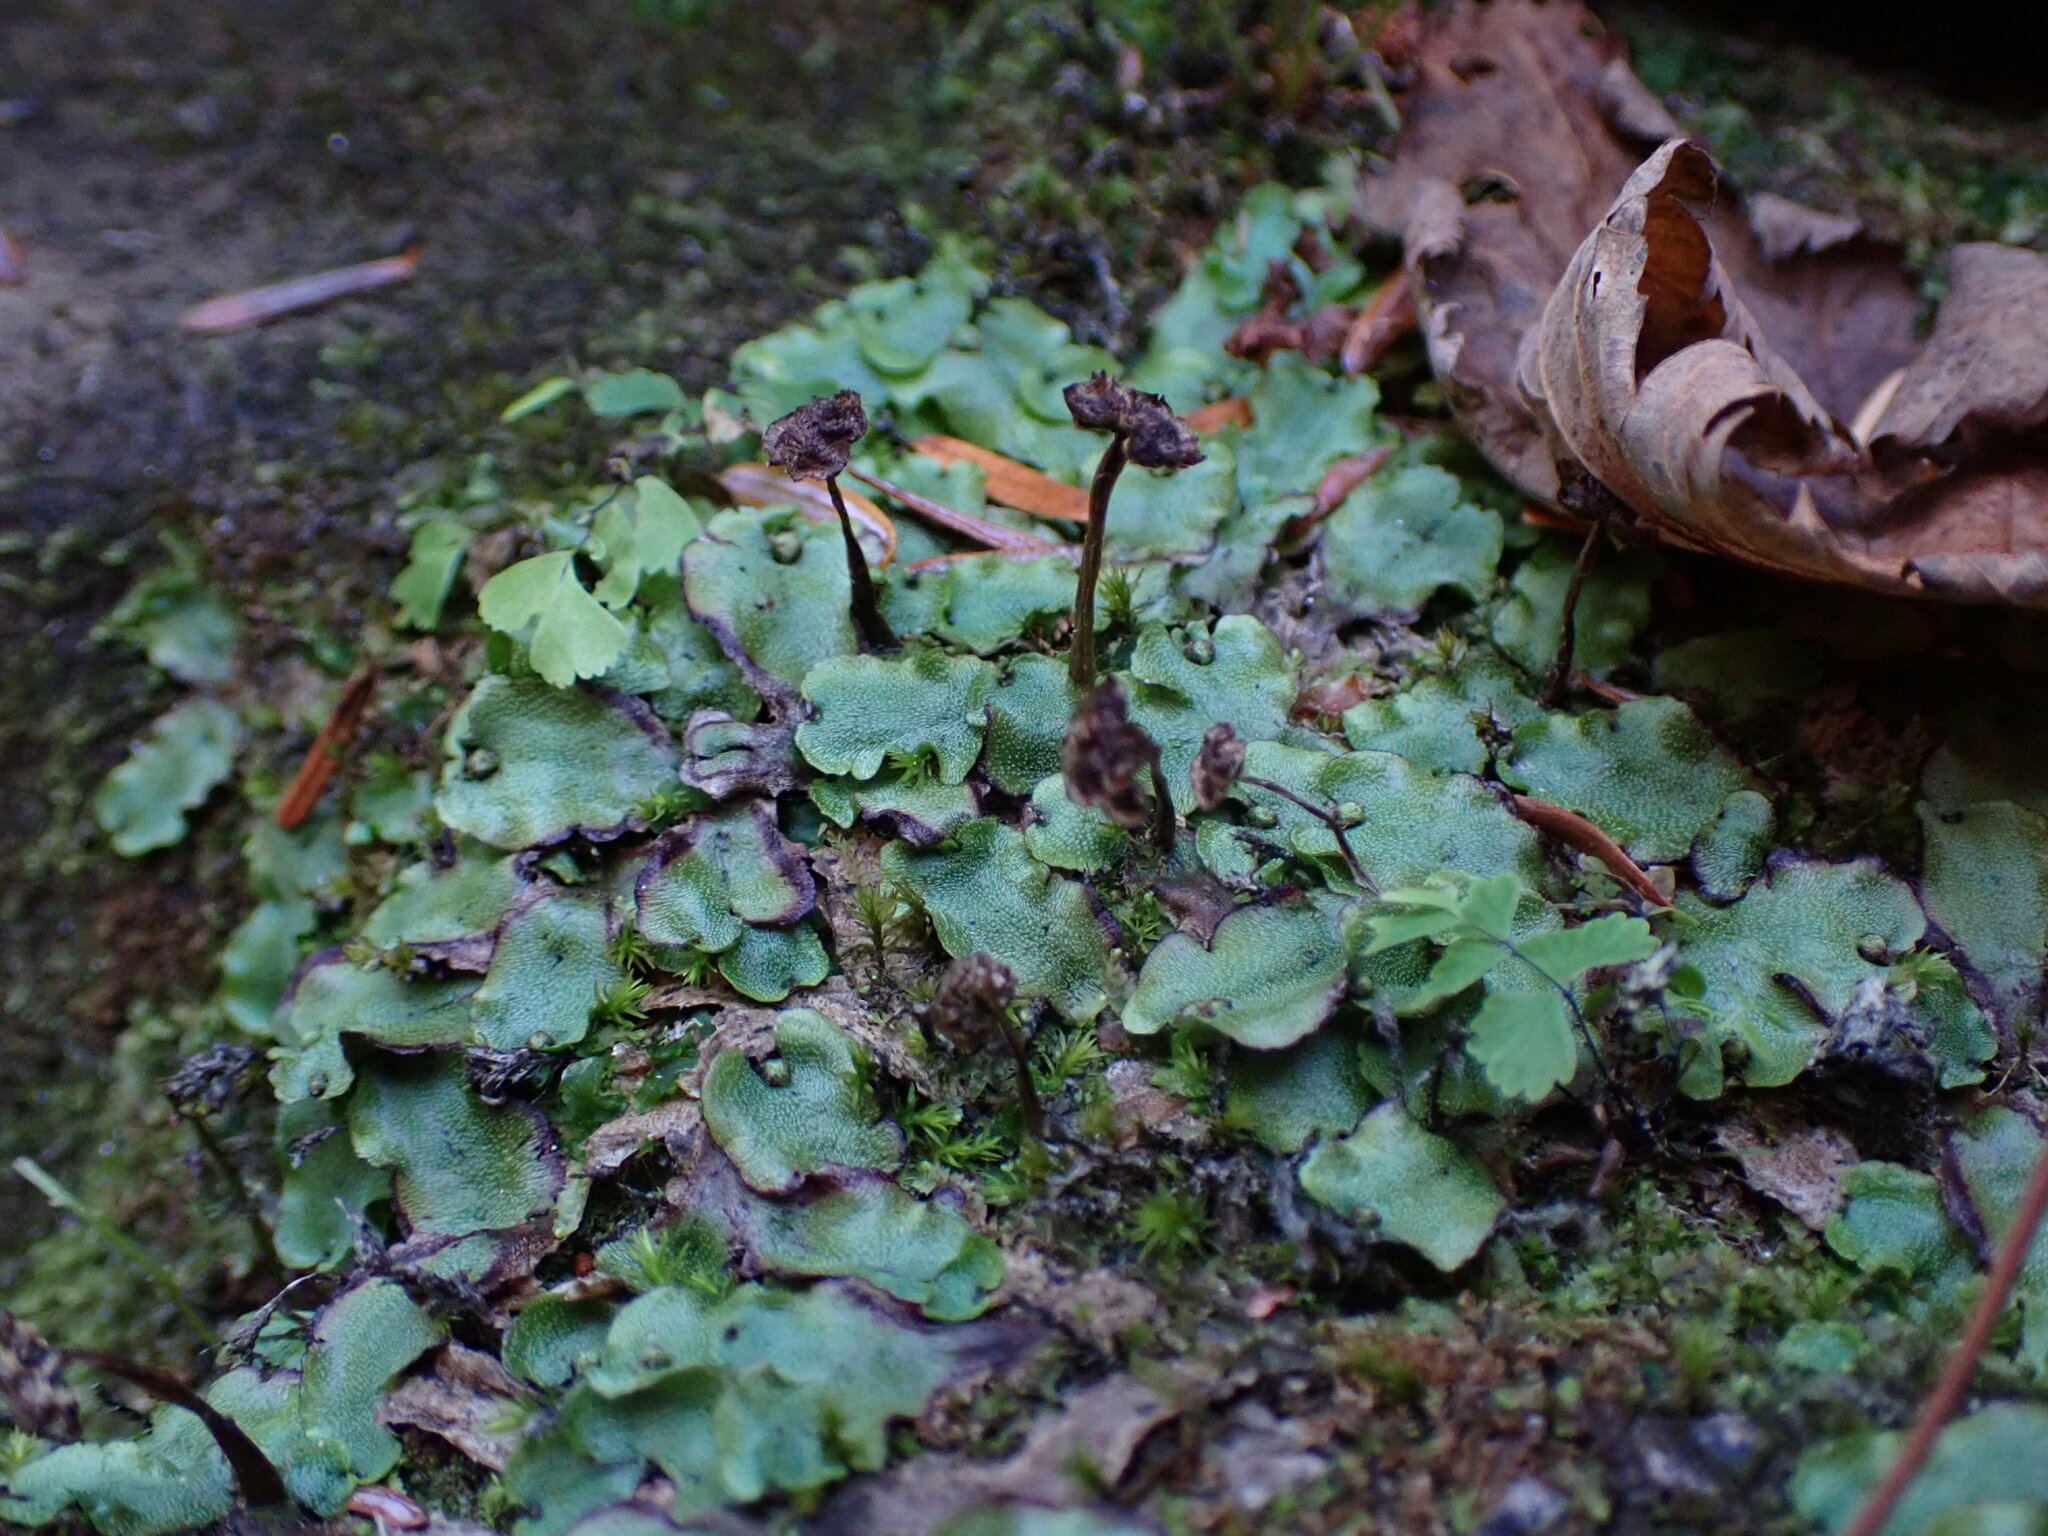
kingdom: Plantae
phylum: Marchantiophyta
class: Marchantiopsida
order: Marchantiales
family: Marchantiaceae
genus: Marchantia
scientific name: Marchantia quadrata
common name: Narrow mushroom-headed liverwort
